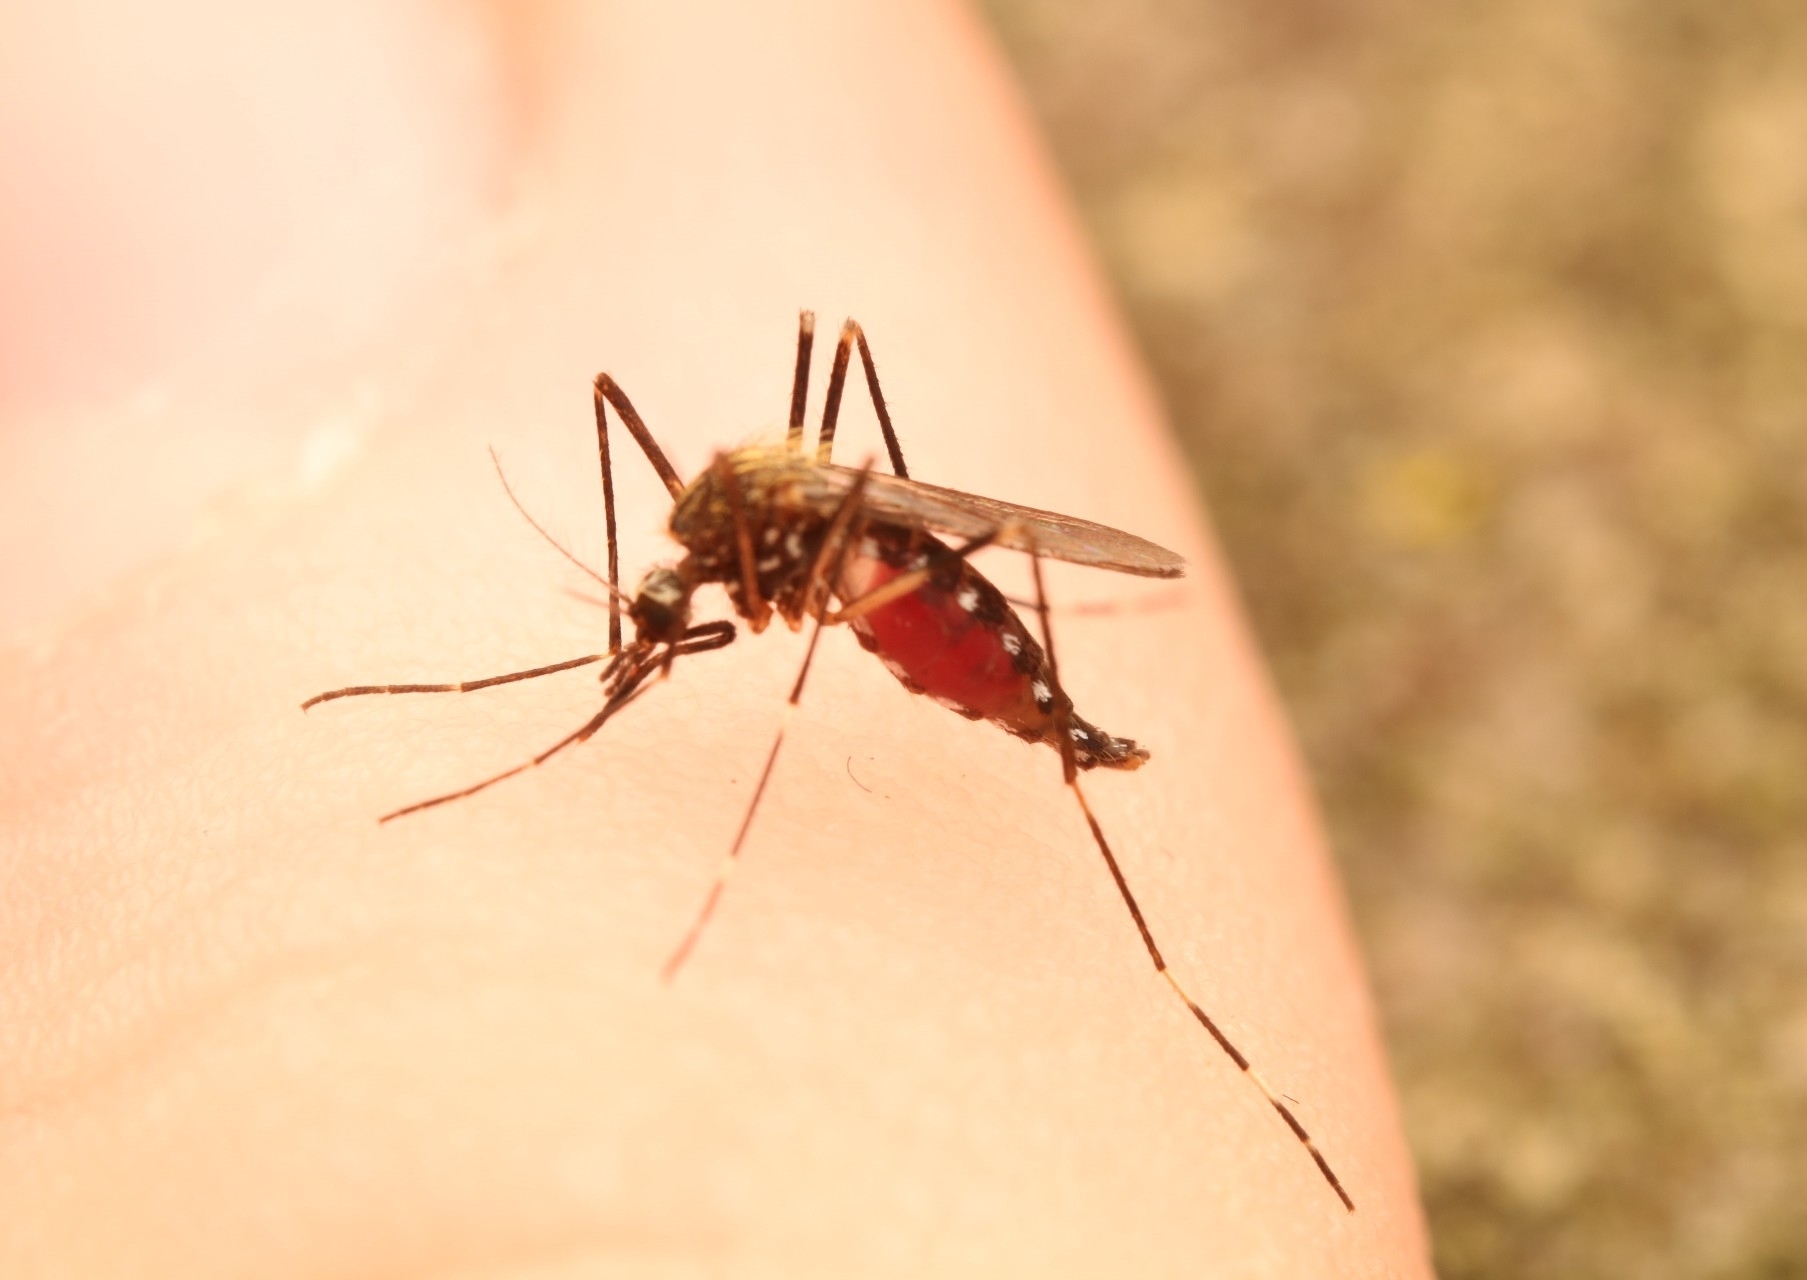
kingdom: Animalia
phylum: Arthropoda
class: Insecta
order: Diptera
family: Culicidae
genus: Aedes
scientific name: Aedes japonicus
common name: Asian bush mosquito
